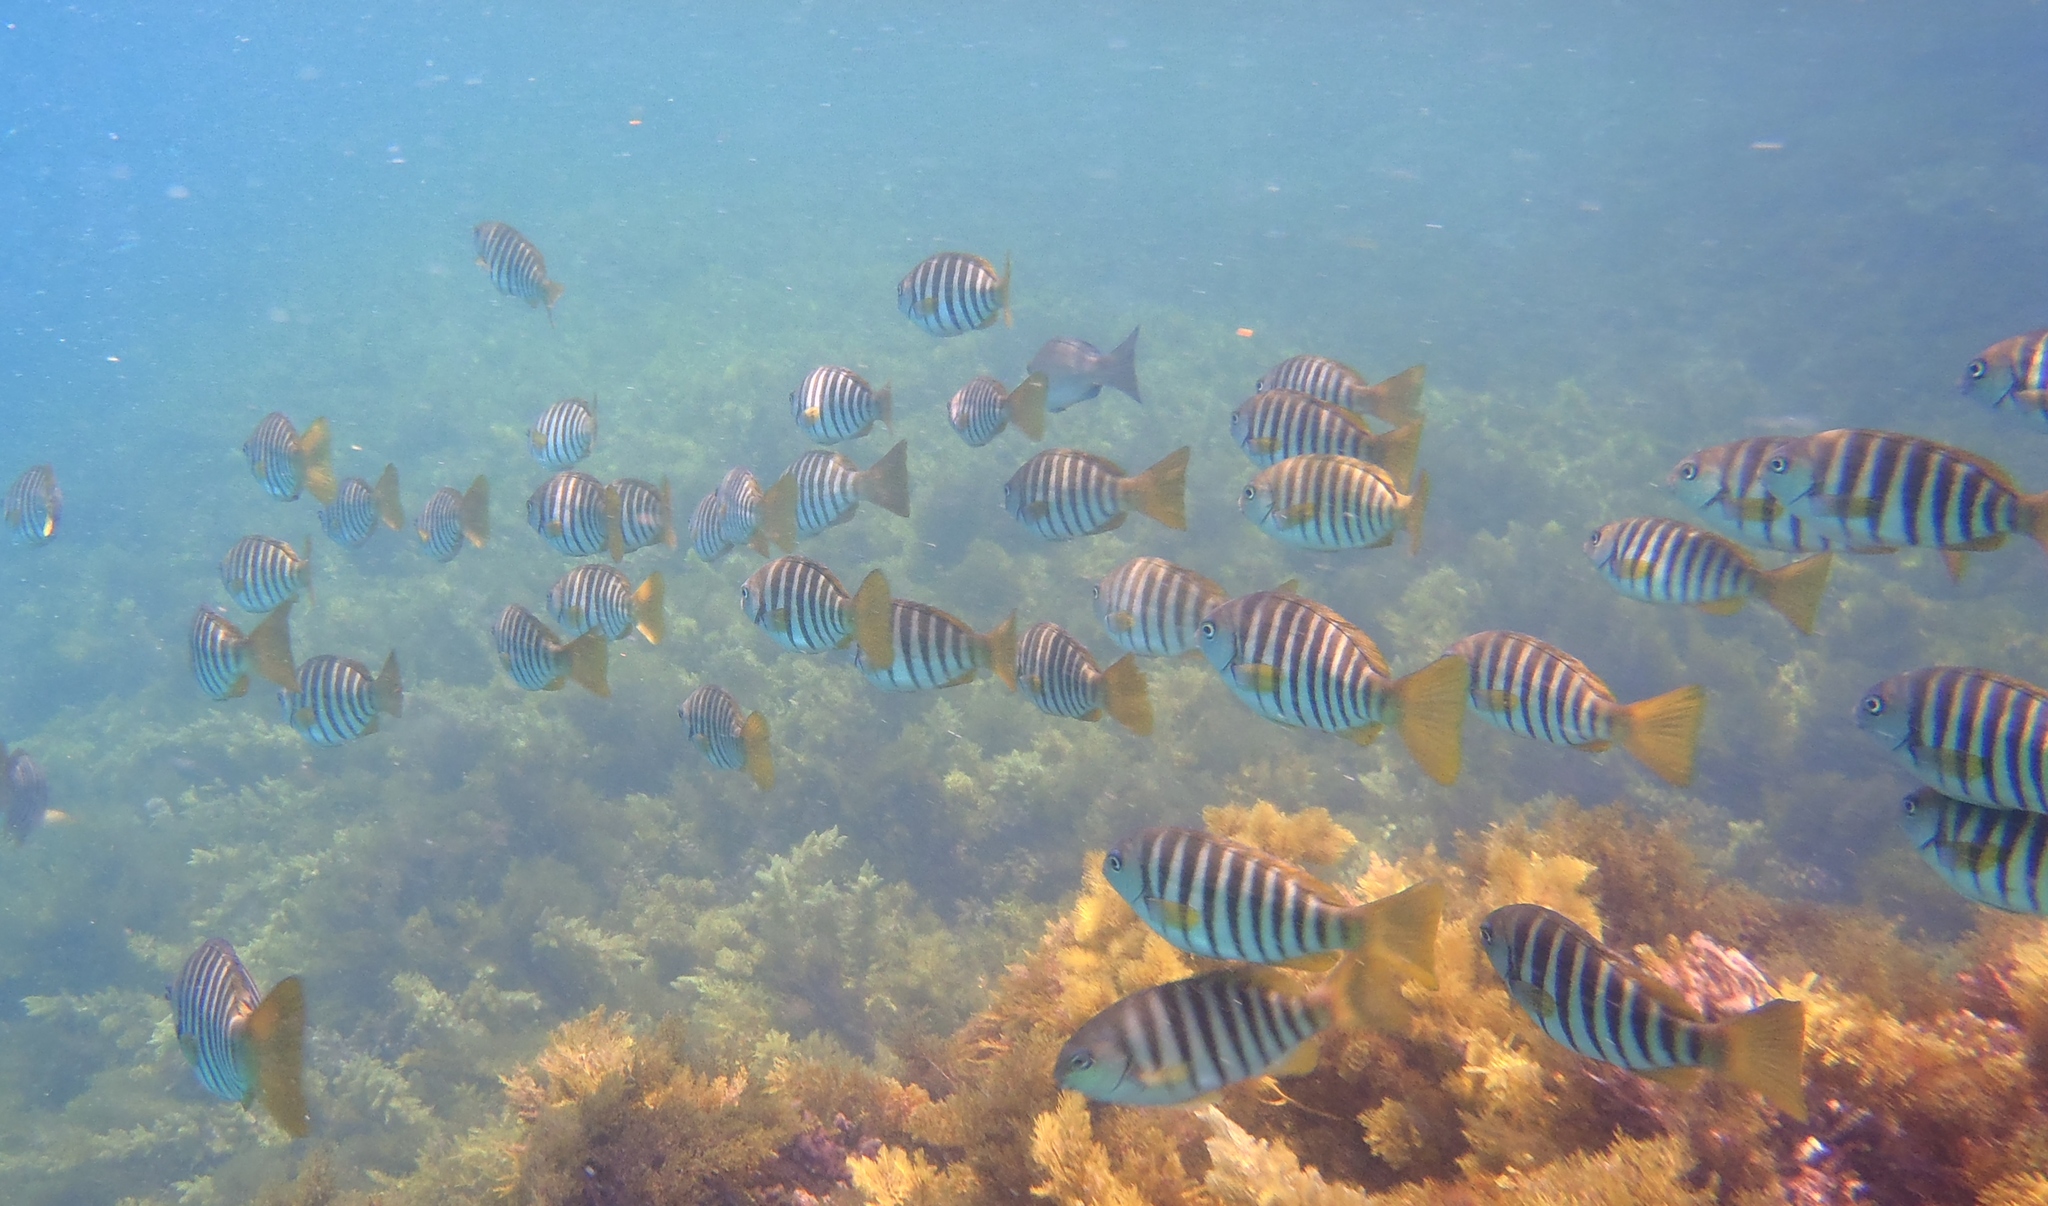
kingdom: Animalia
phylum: Chordata
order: Perciformes
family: Kyphosidae
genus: Girella
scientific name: Girella zebra
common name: Stripey bream
